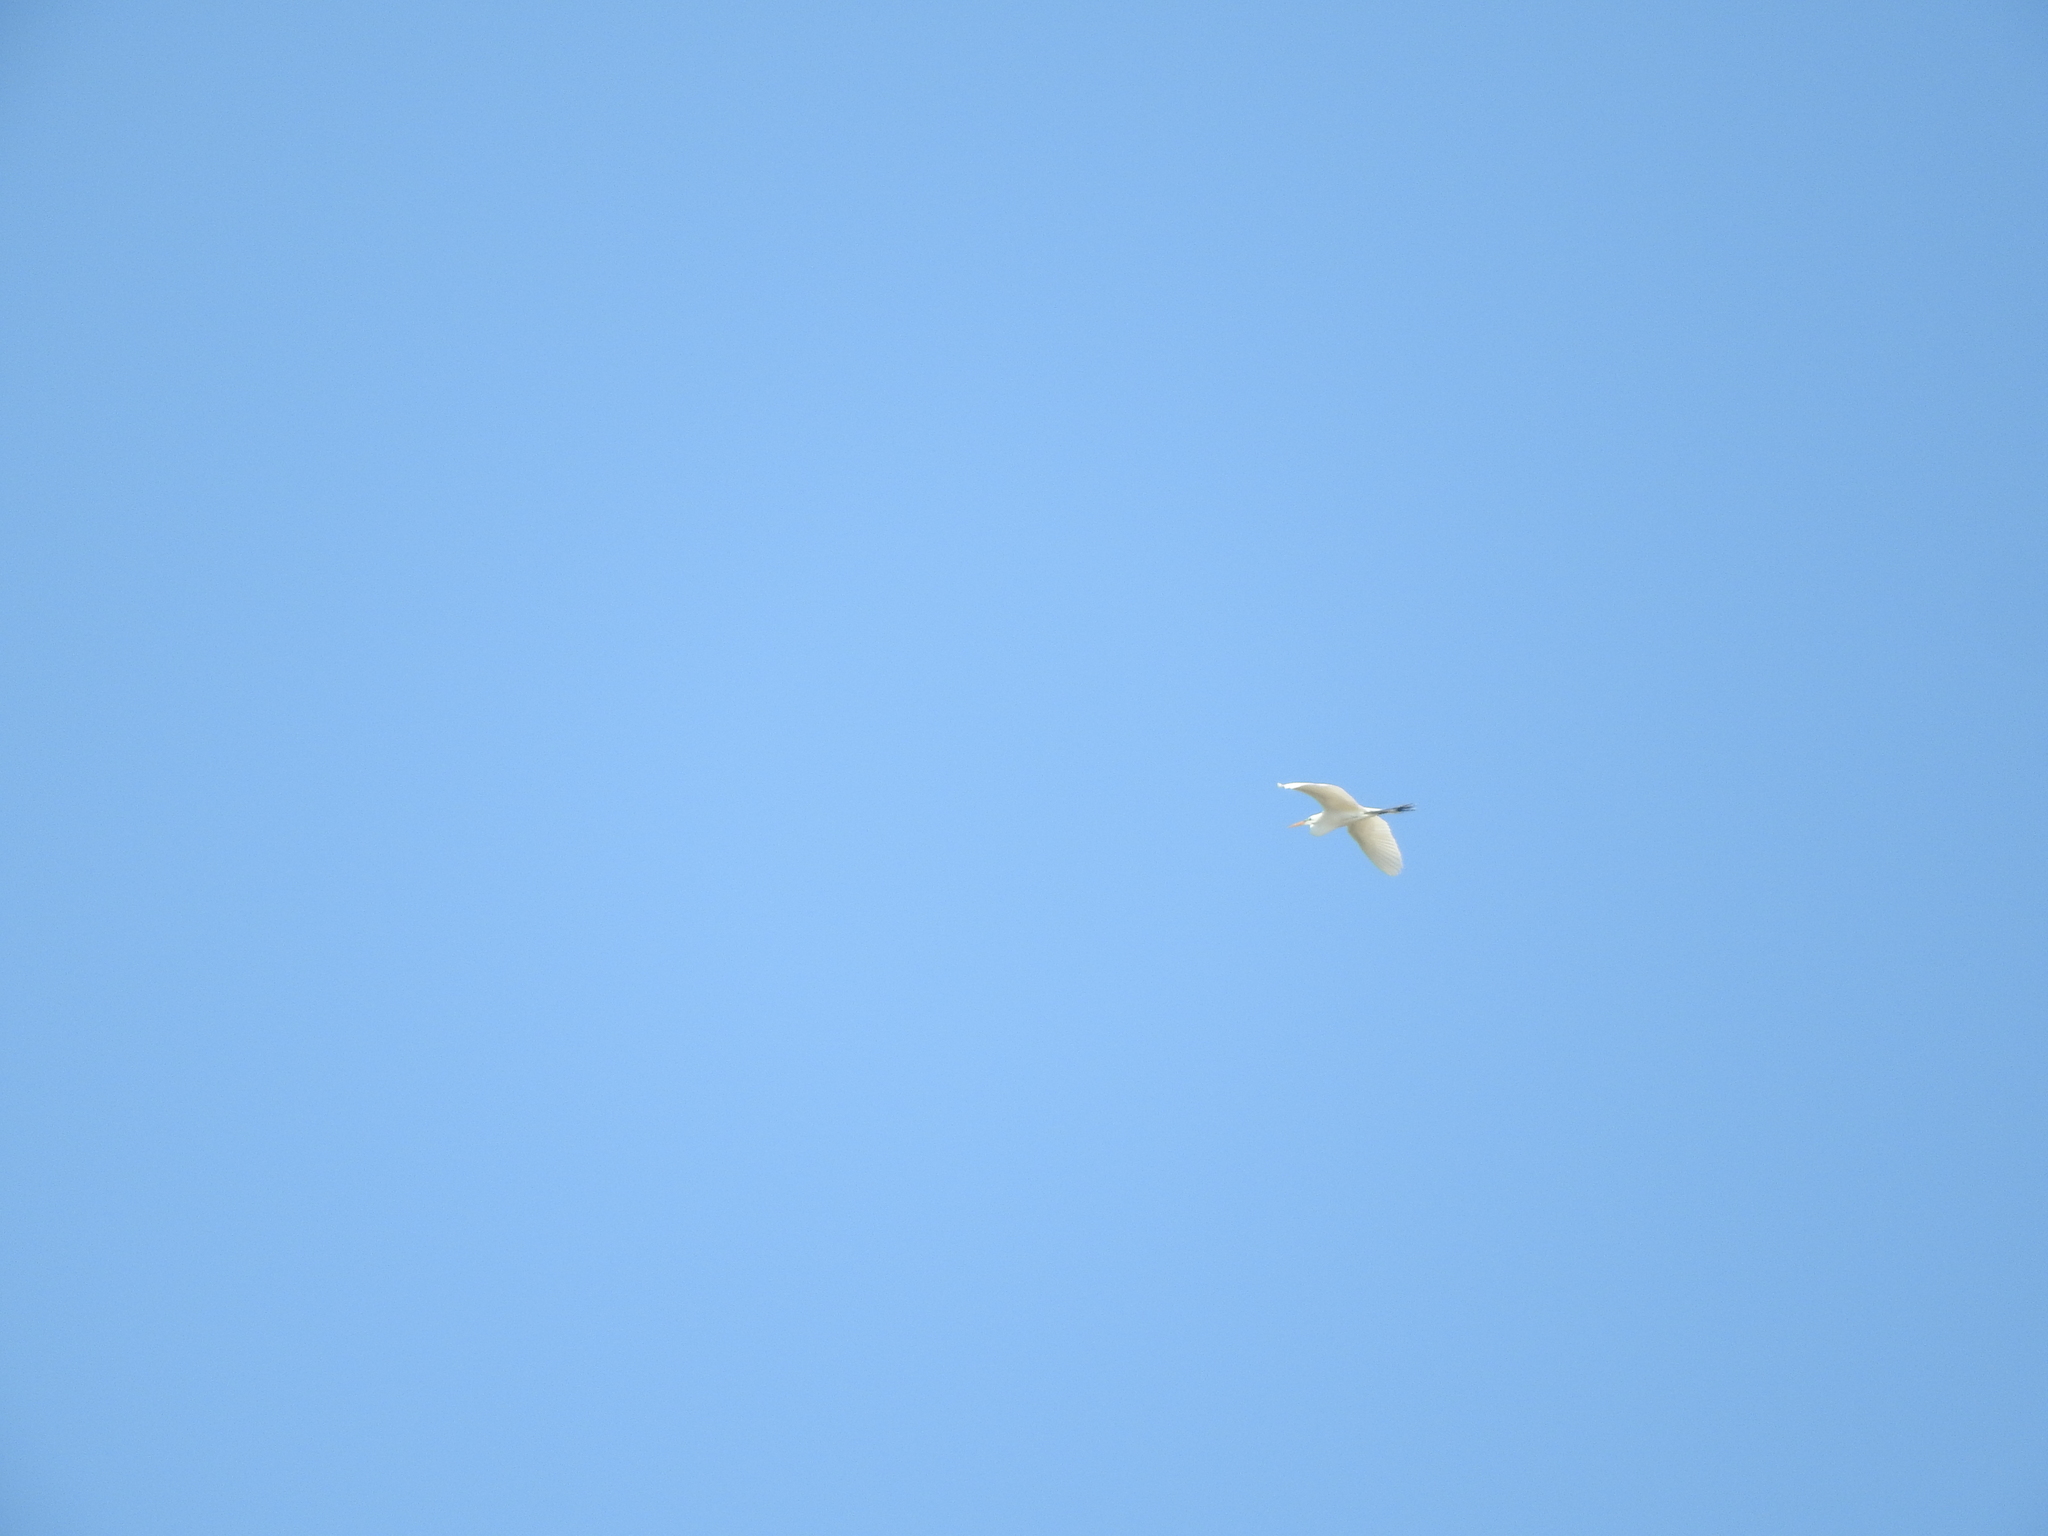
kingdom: Animalia
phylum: Chordata
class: Aves
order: Pelecaniformes
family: Ardeidae
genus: Ardea
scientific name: Ardea alba
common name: Great egret
